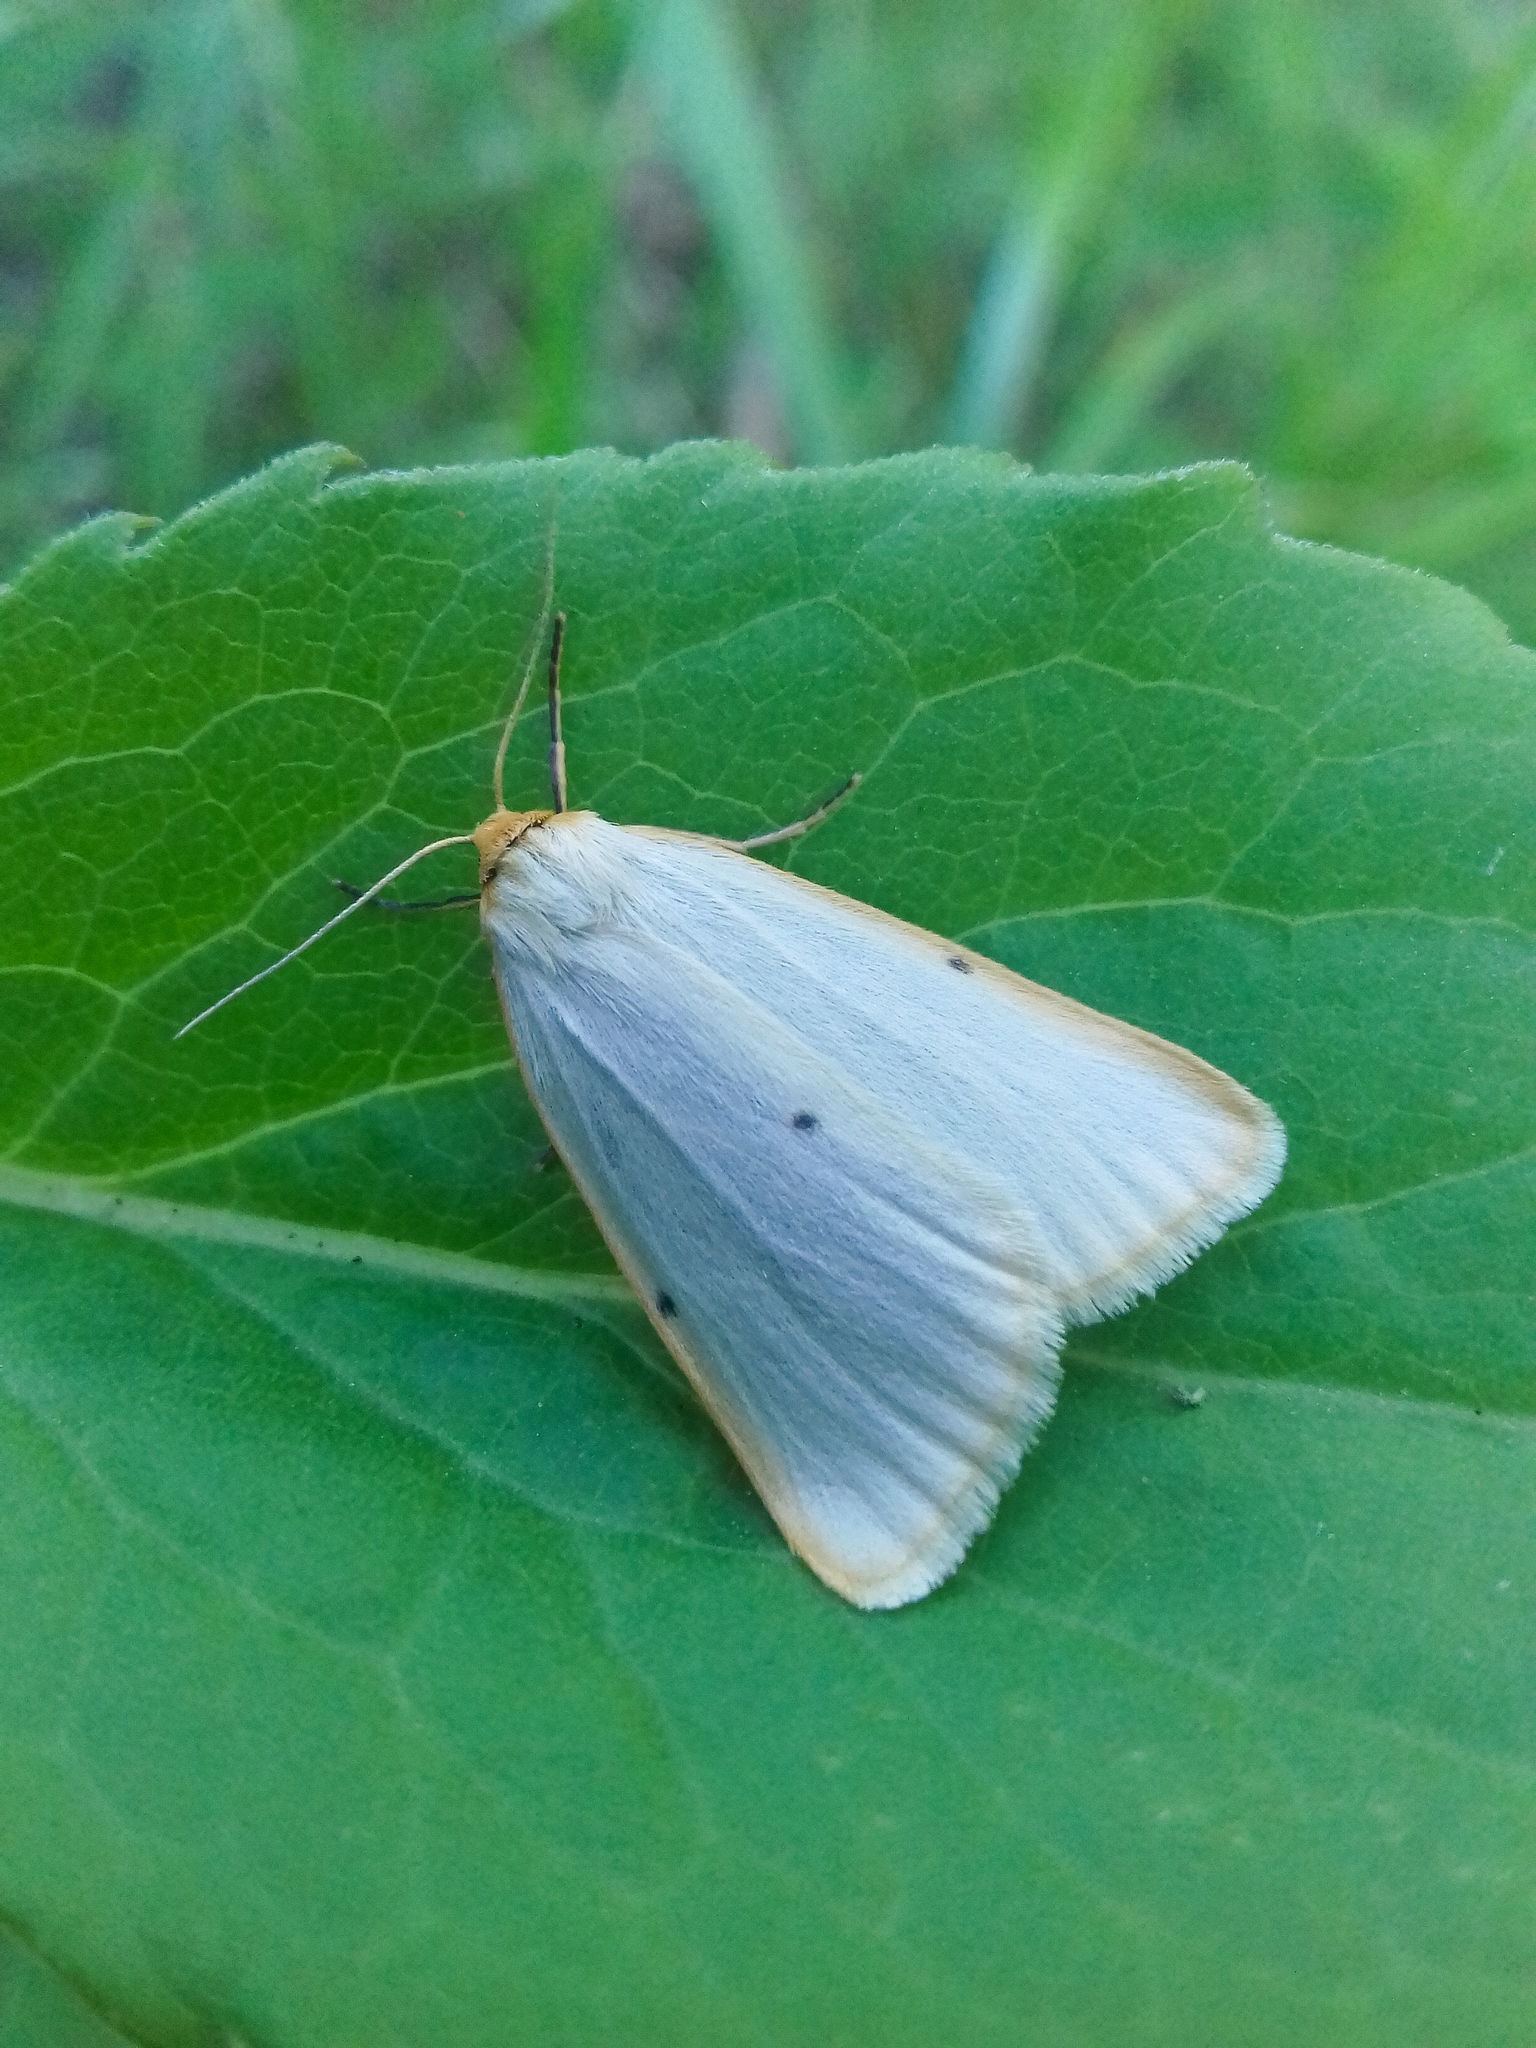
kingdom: Animalia
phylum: Arthropoda
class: Insecta
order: Lepidoptera
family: Erebidae
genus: Cybosia
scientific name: Cybosia mesomella
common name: Four-dotted footman
